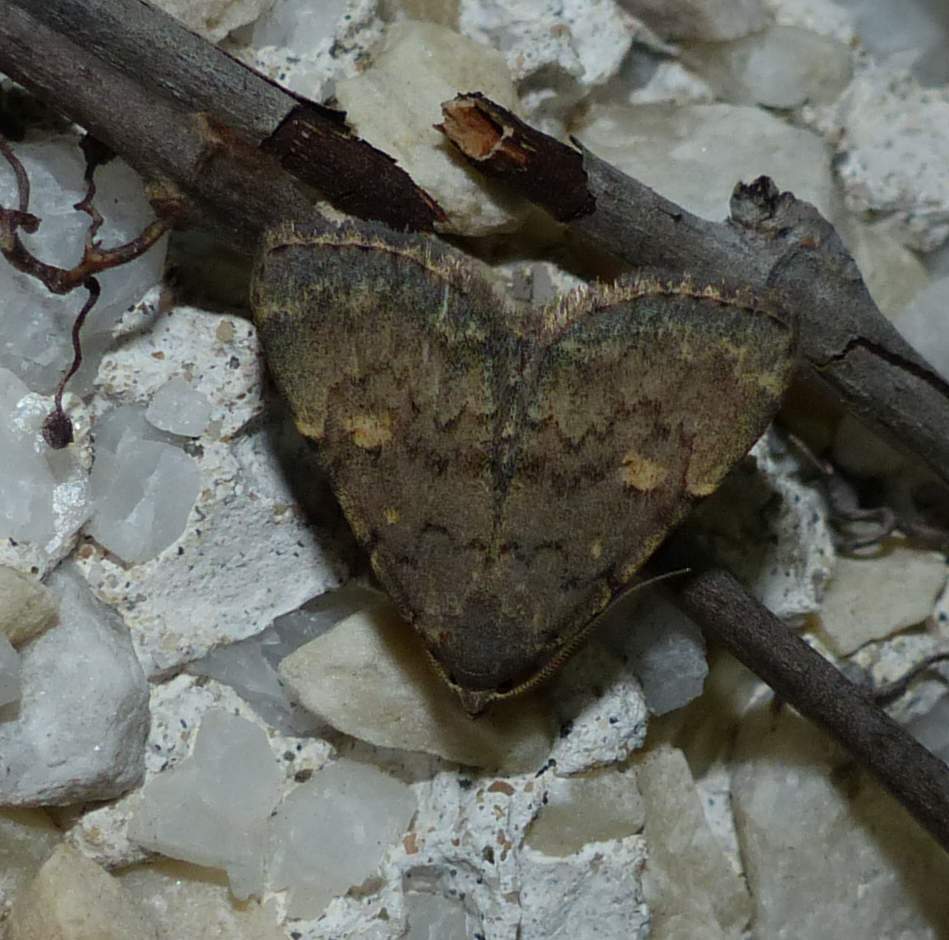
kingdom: Animalia
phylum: Arthropoda
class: Insecta
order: Lepidoptera
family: Erebidae
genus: Idia
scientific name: Idia aemula
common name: Common idia moth
